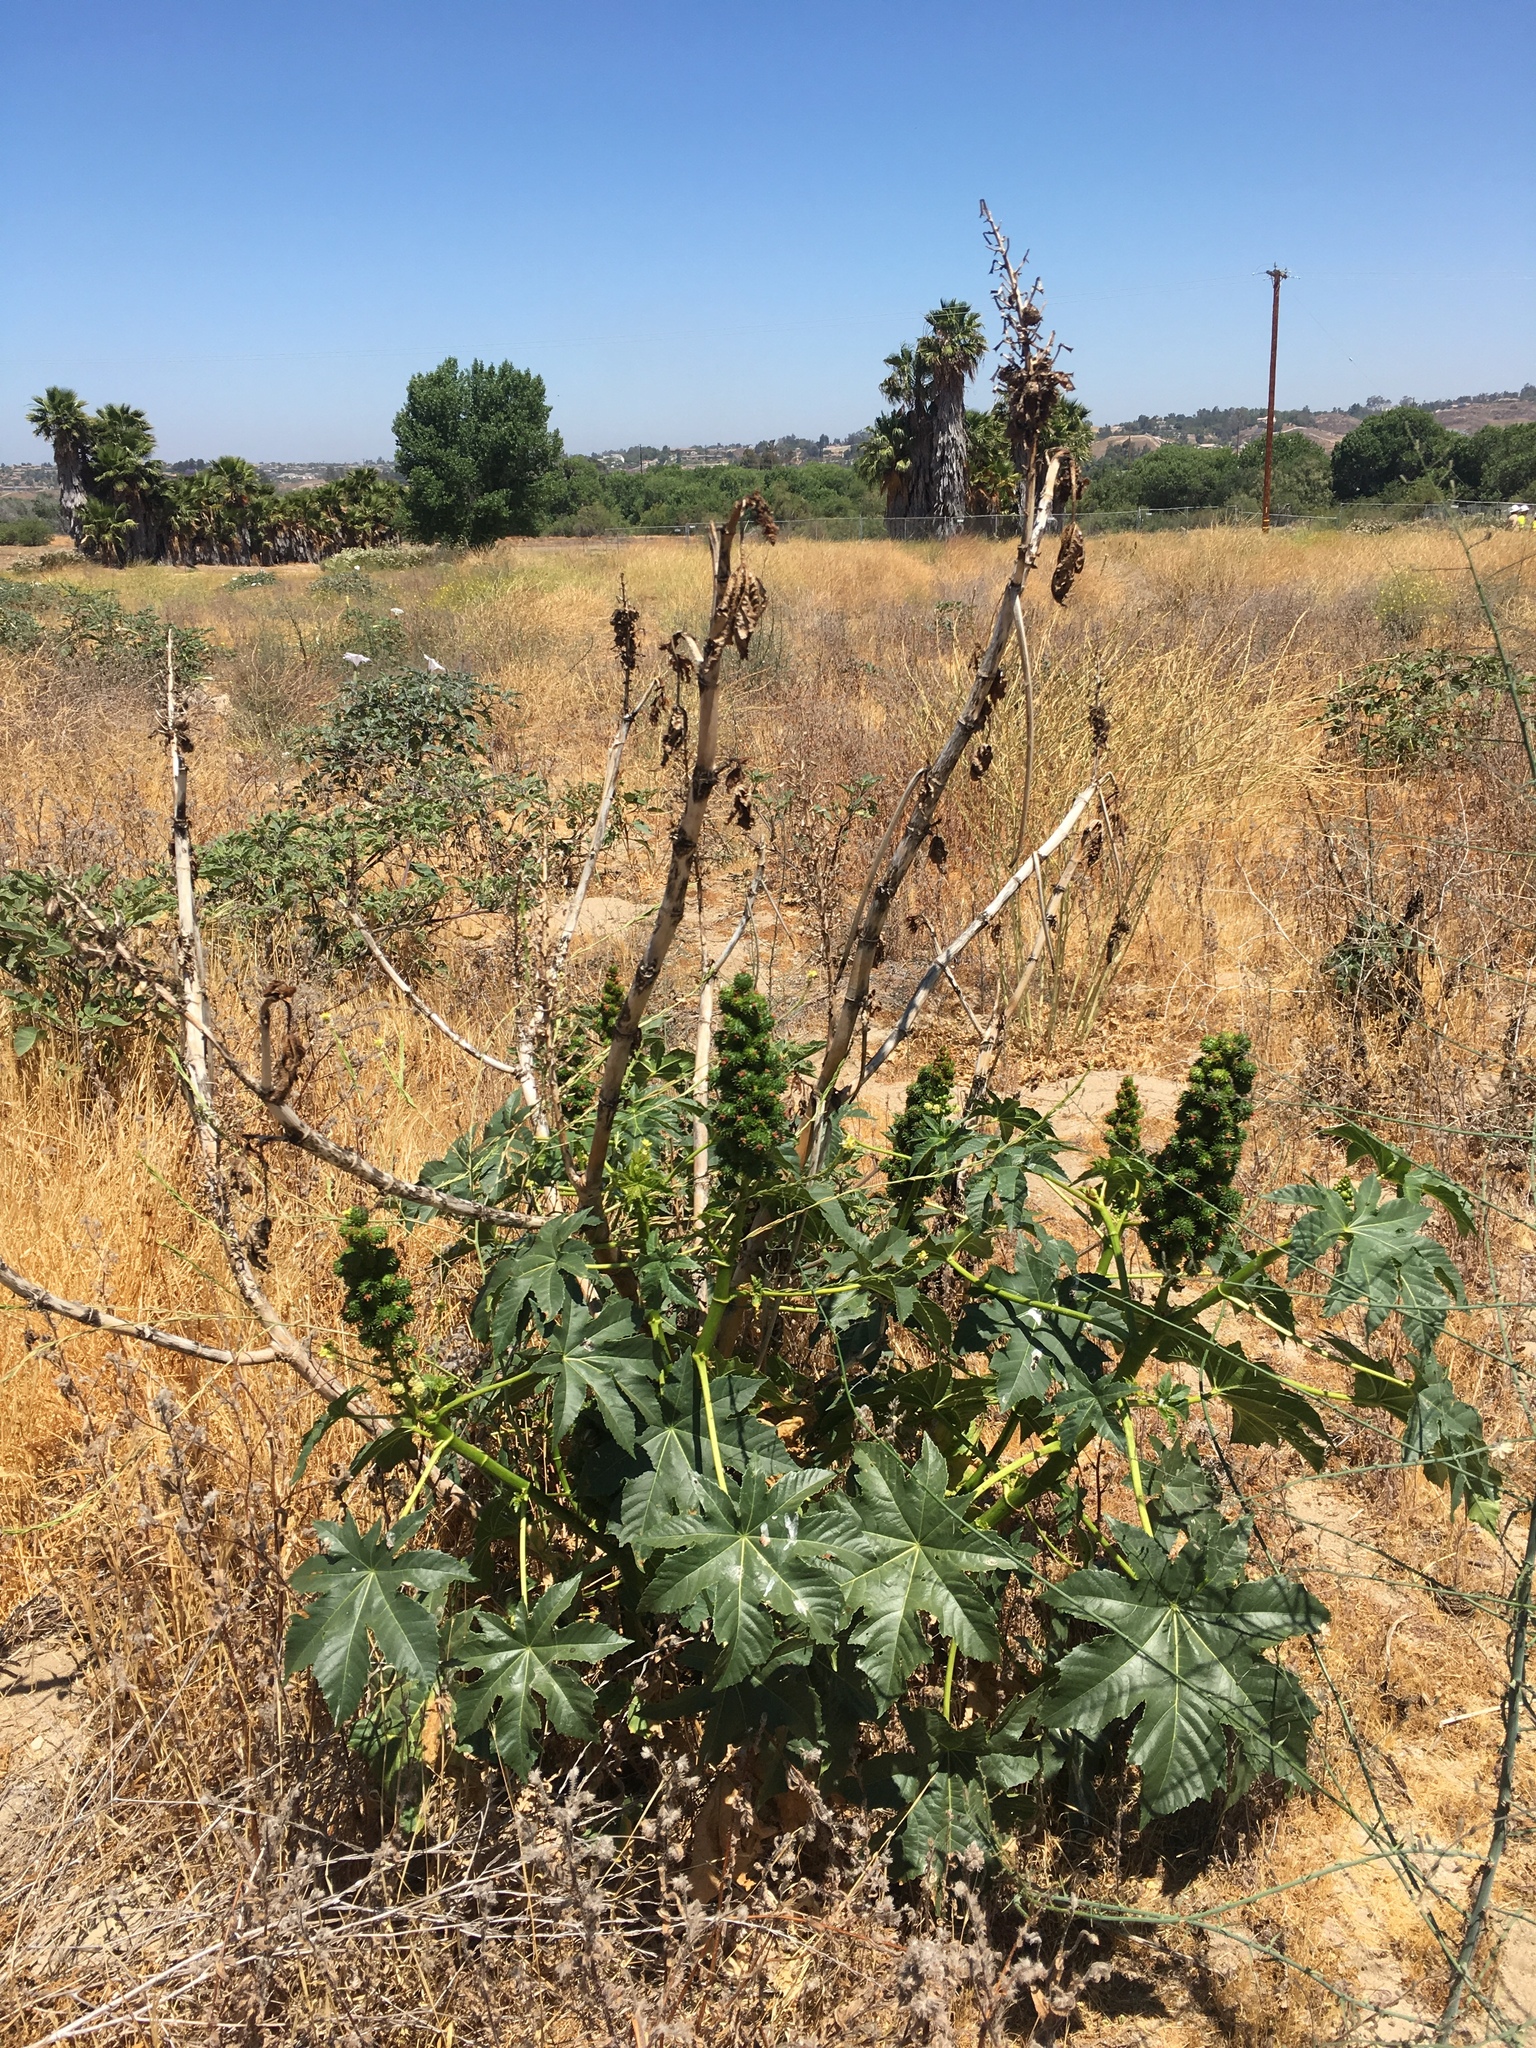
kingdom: Plantae
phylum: Tracheophyta
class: Magnoliopsida
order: Malpighiales
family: Euphorbiaceae
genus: Ricinus
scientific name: Ricinus communis
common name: Castor-oil-plant
